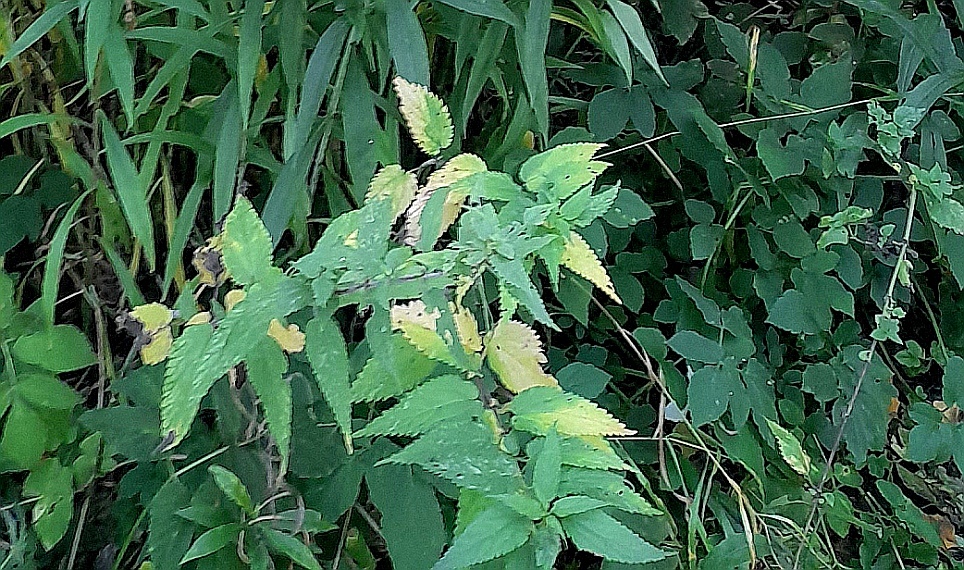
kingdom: Plantae
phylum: Tracheophyta
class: Magnoliopsida
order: Rosales
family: Urticaceae
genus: Urtica
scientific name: Urtica dioica
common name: Common nettle
